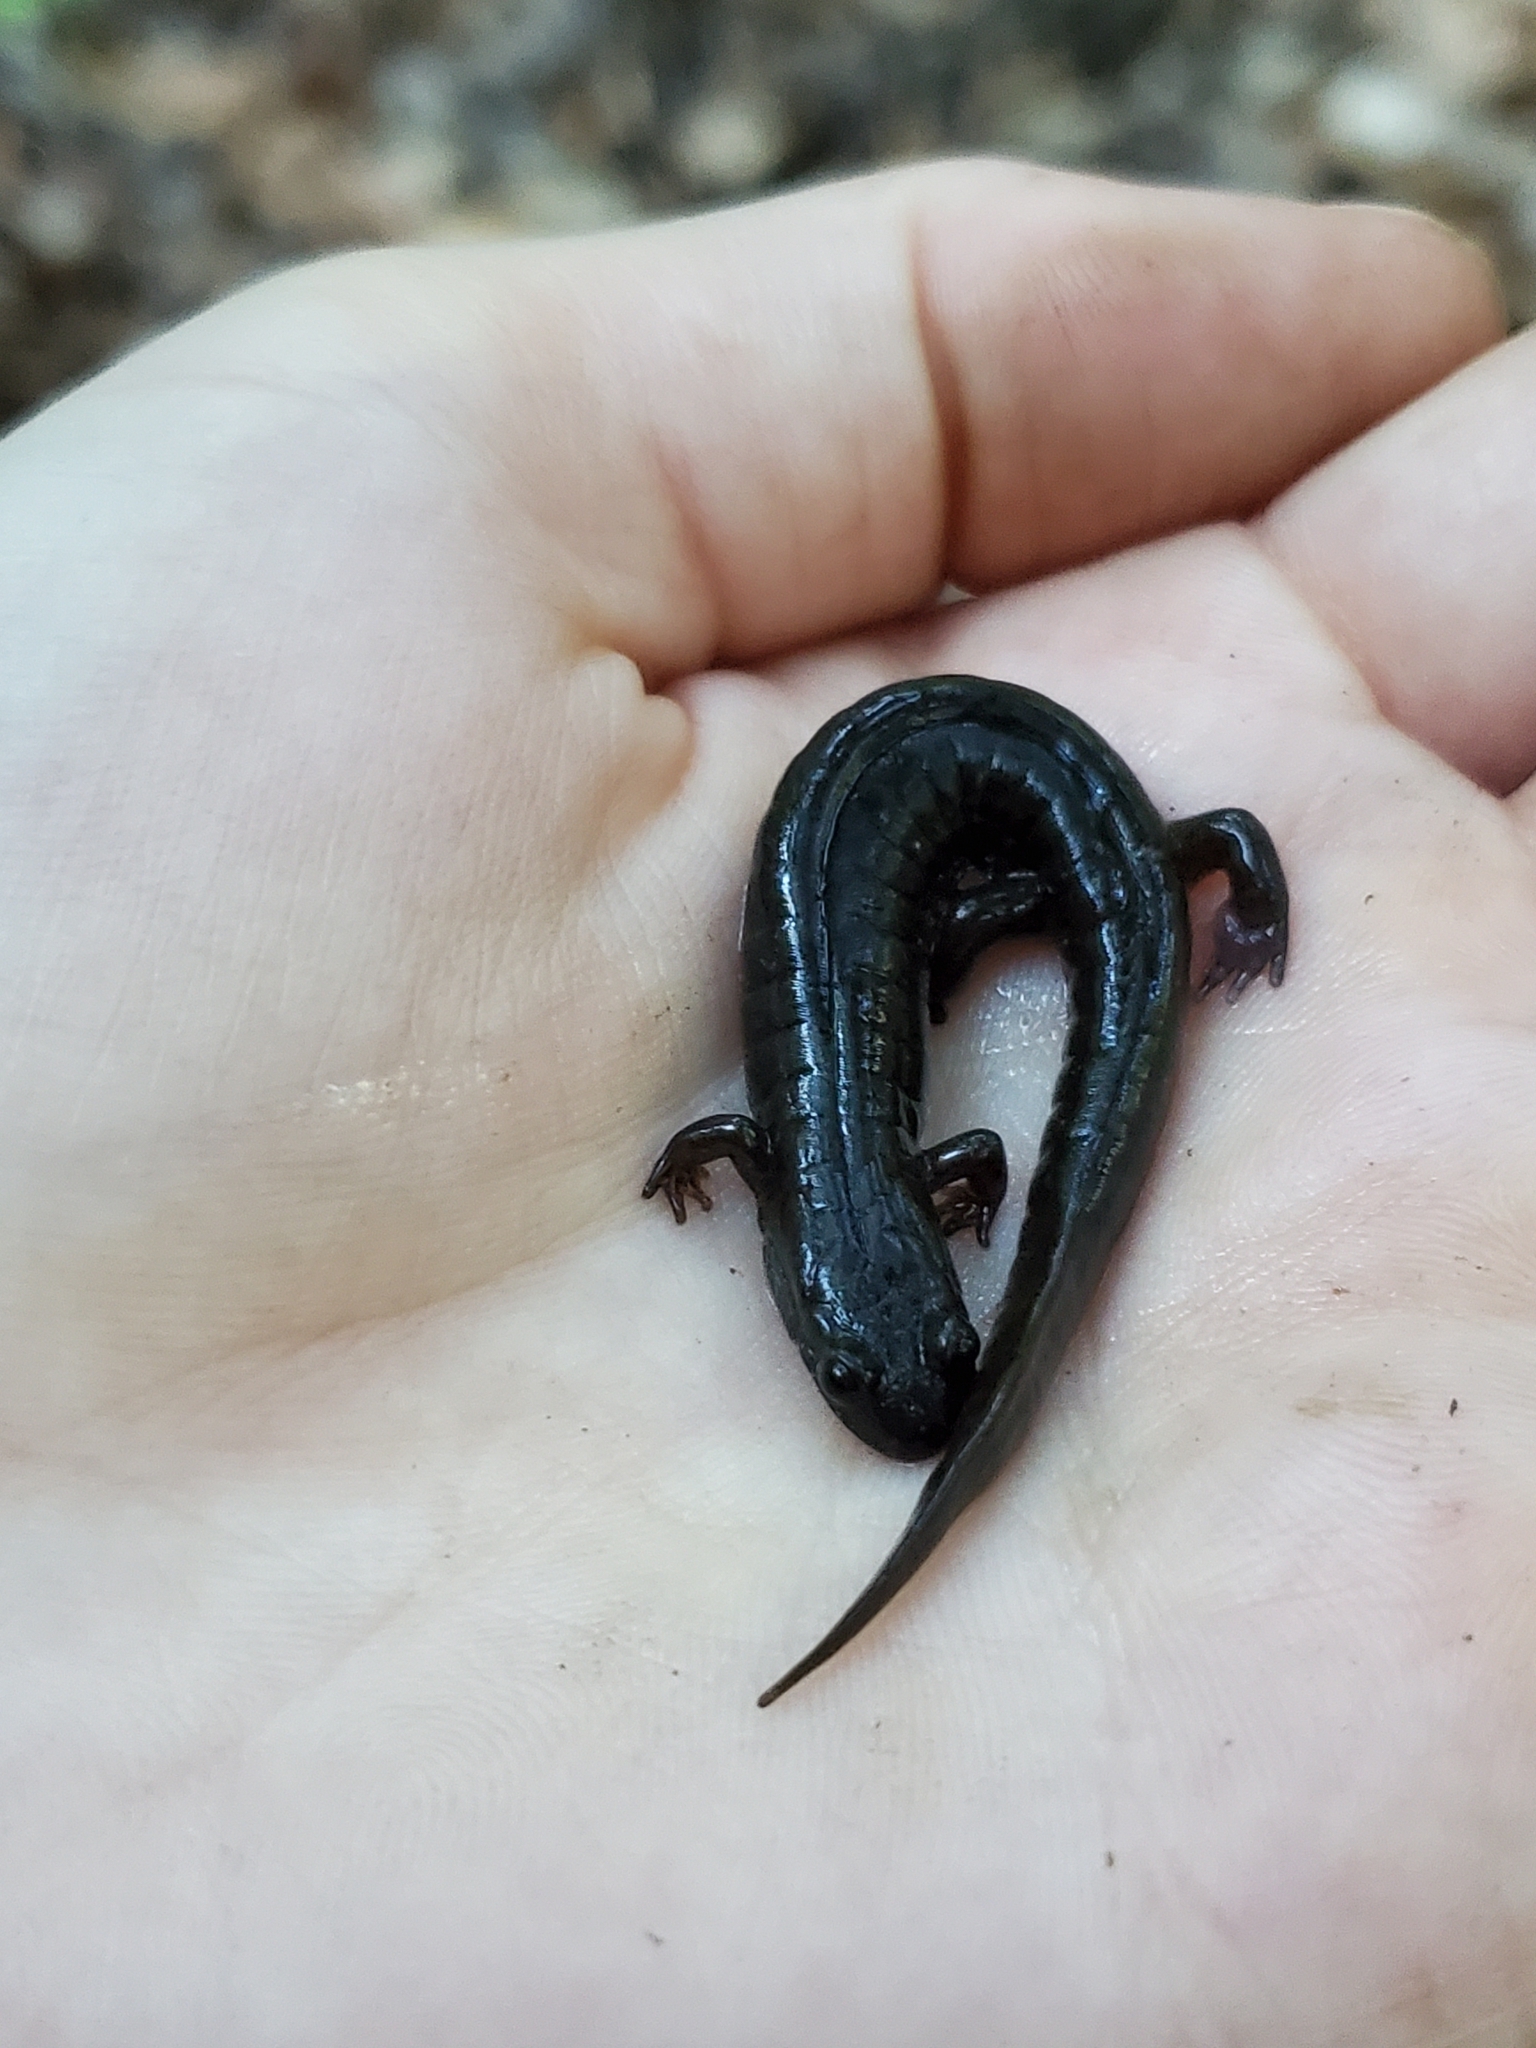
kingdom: Animalia
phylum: Chordata
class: Amphibia
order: Caudata
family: Plethodontidae
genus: Desmognathus
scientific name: Desmognathus fuscus
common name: Northern dusky salamander
